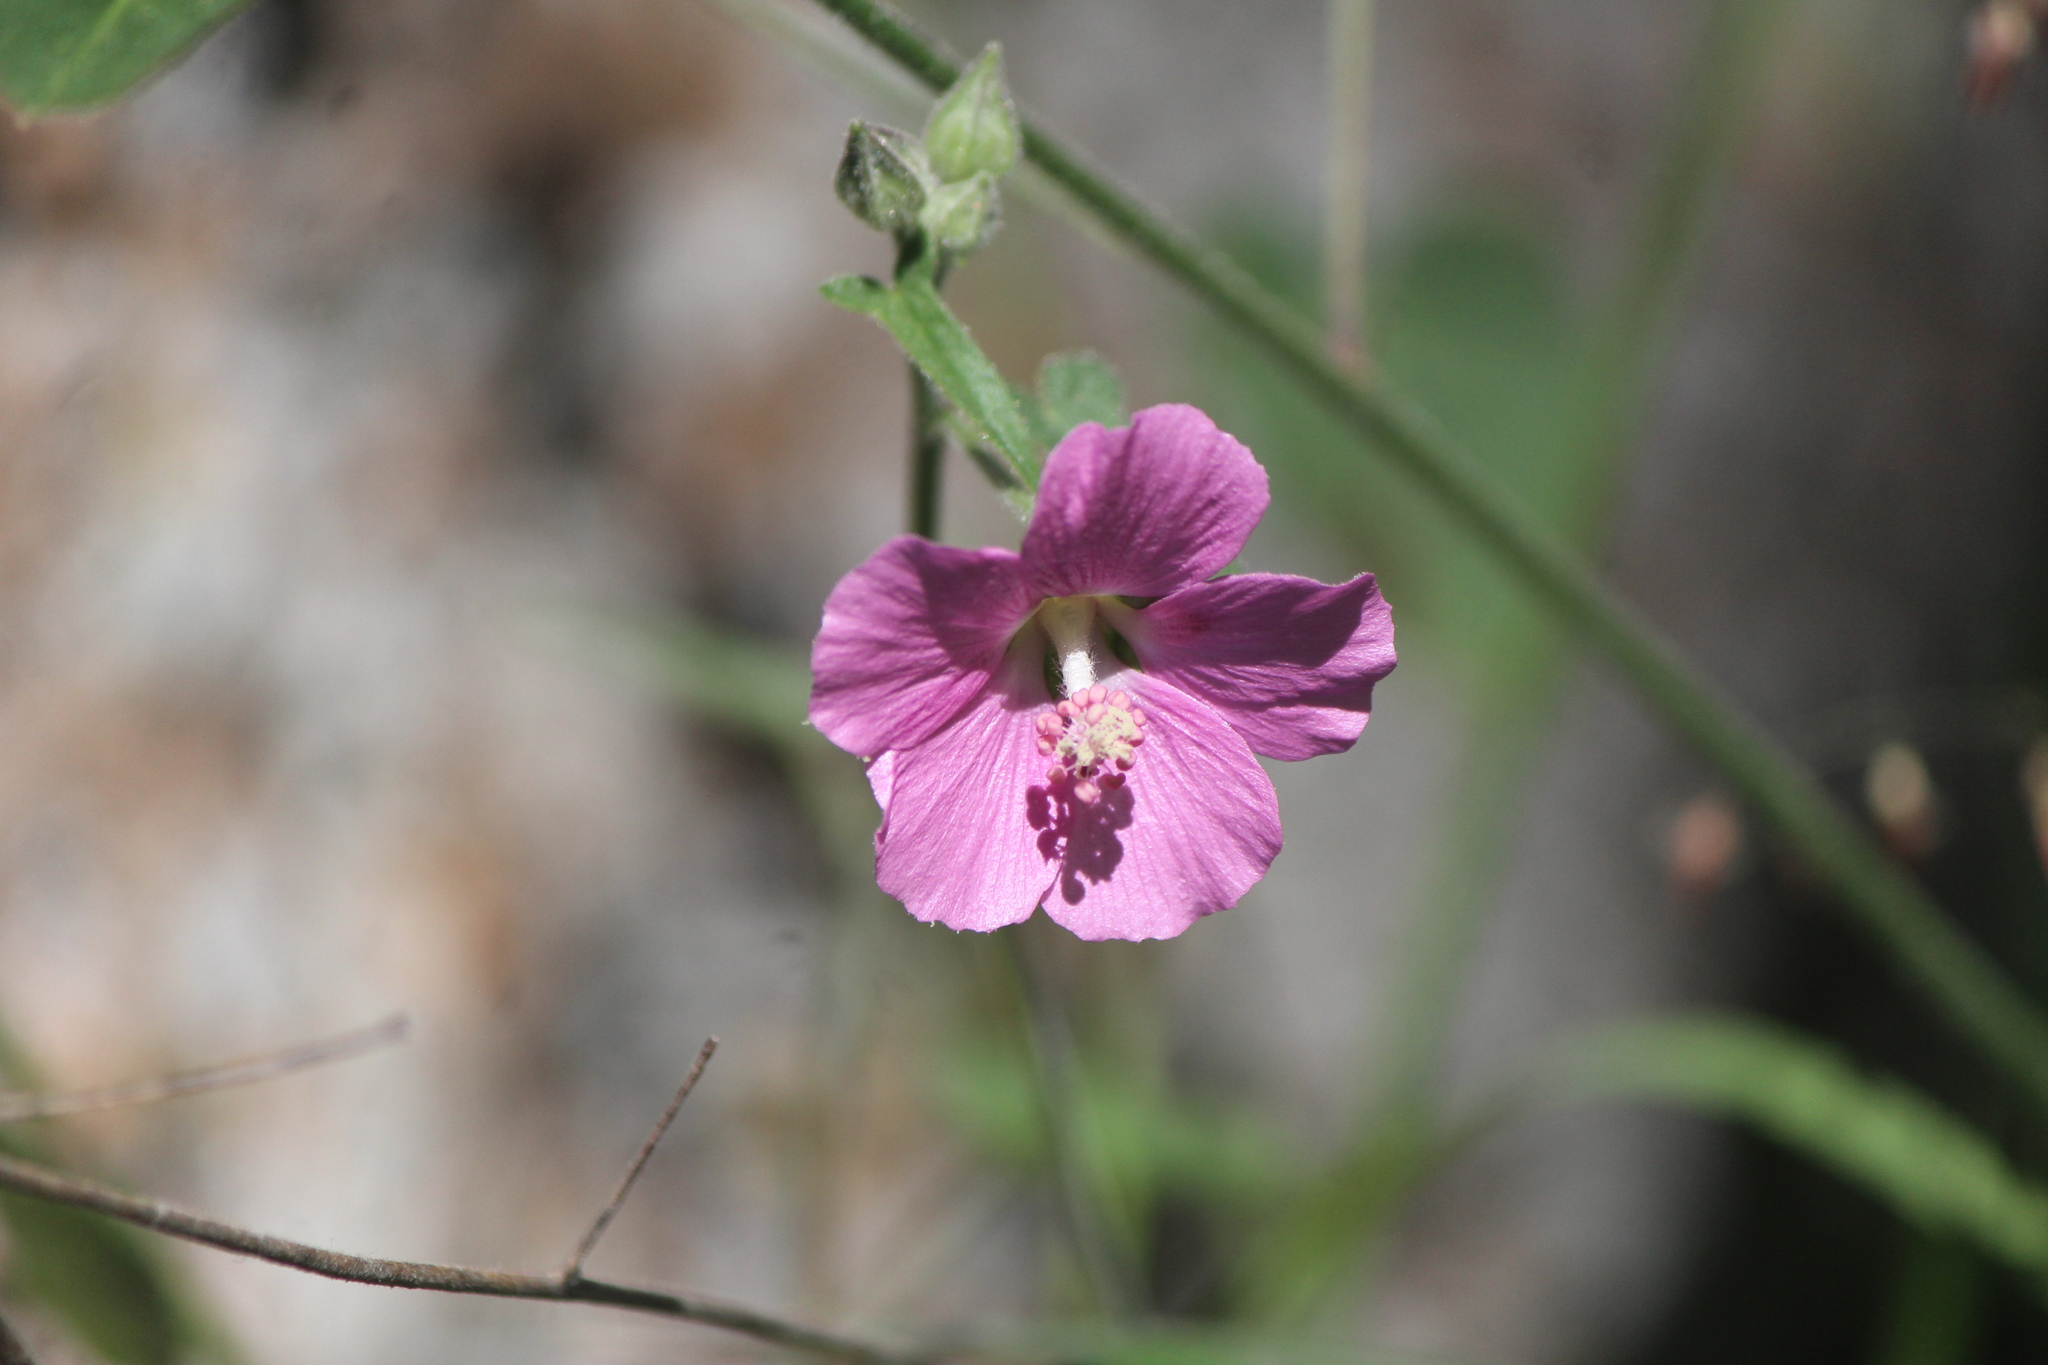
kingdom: Plantae
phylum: Tracheophyta
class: Magnoliopsida
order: Malvales
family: Malvaceae
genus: Anoda
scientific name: Anoda henricksonii
